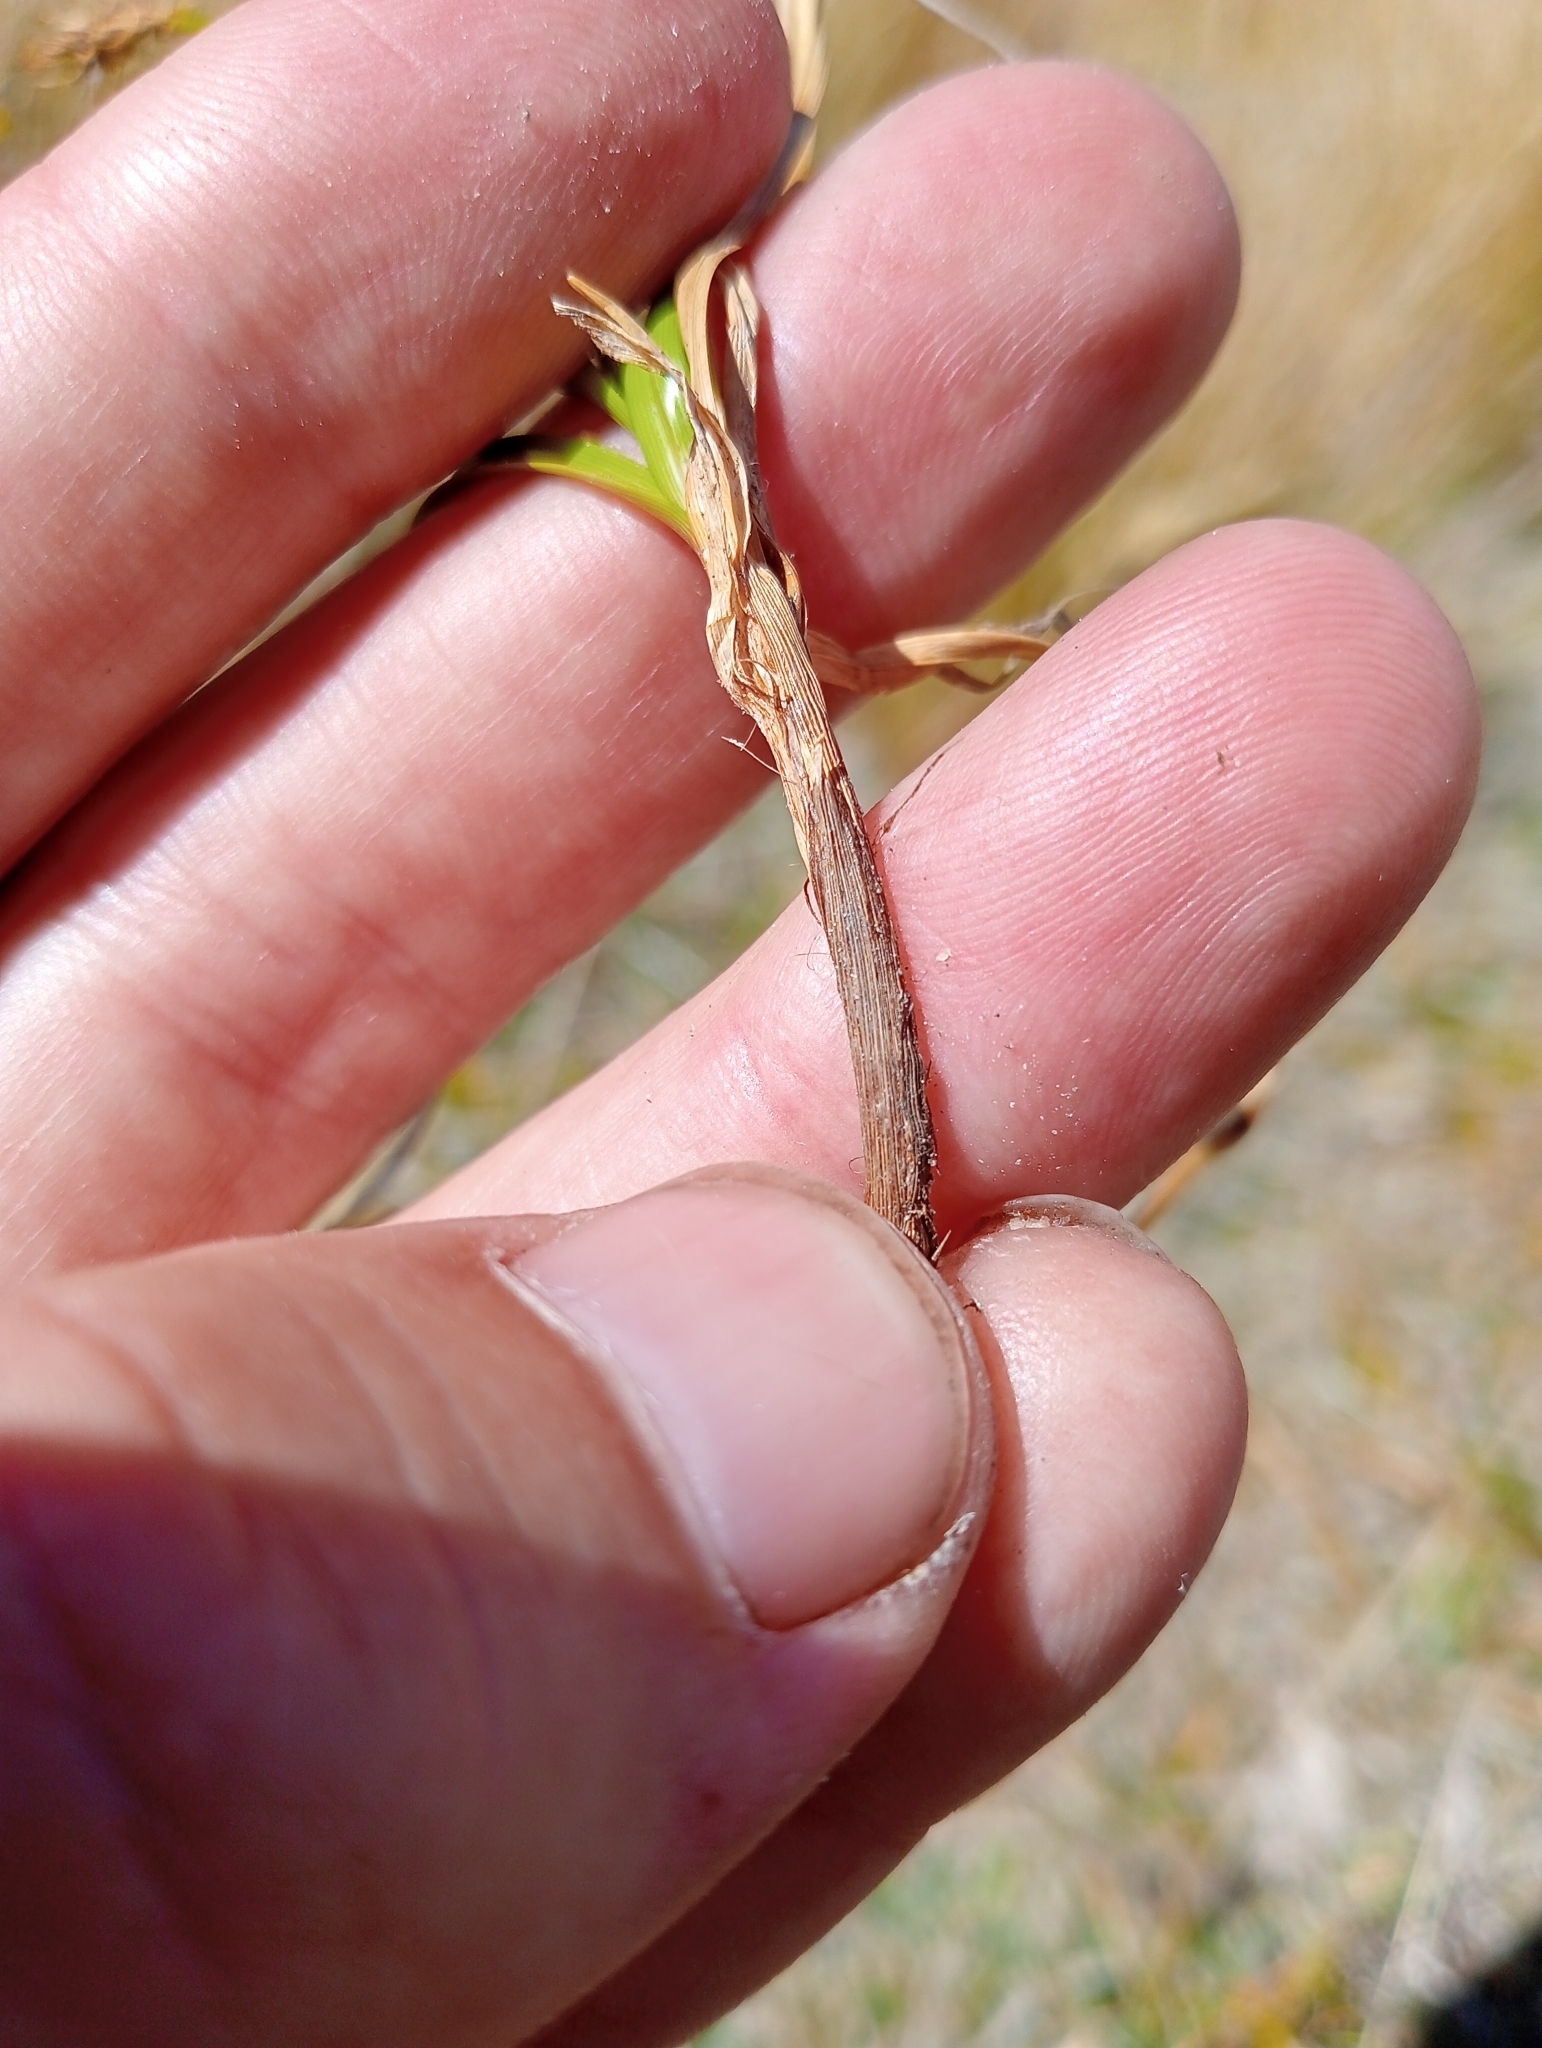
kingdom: Plantae
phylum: Tracheophyta
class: Liliopsida
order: Poales
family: Cyperaceae
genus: Carex
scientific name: Carex edura
